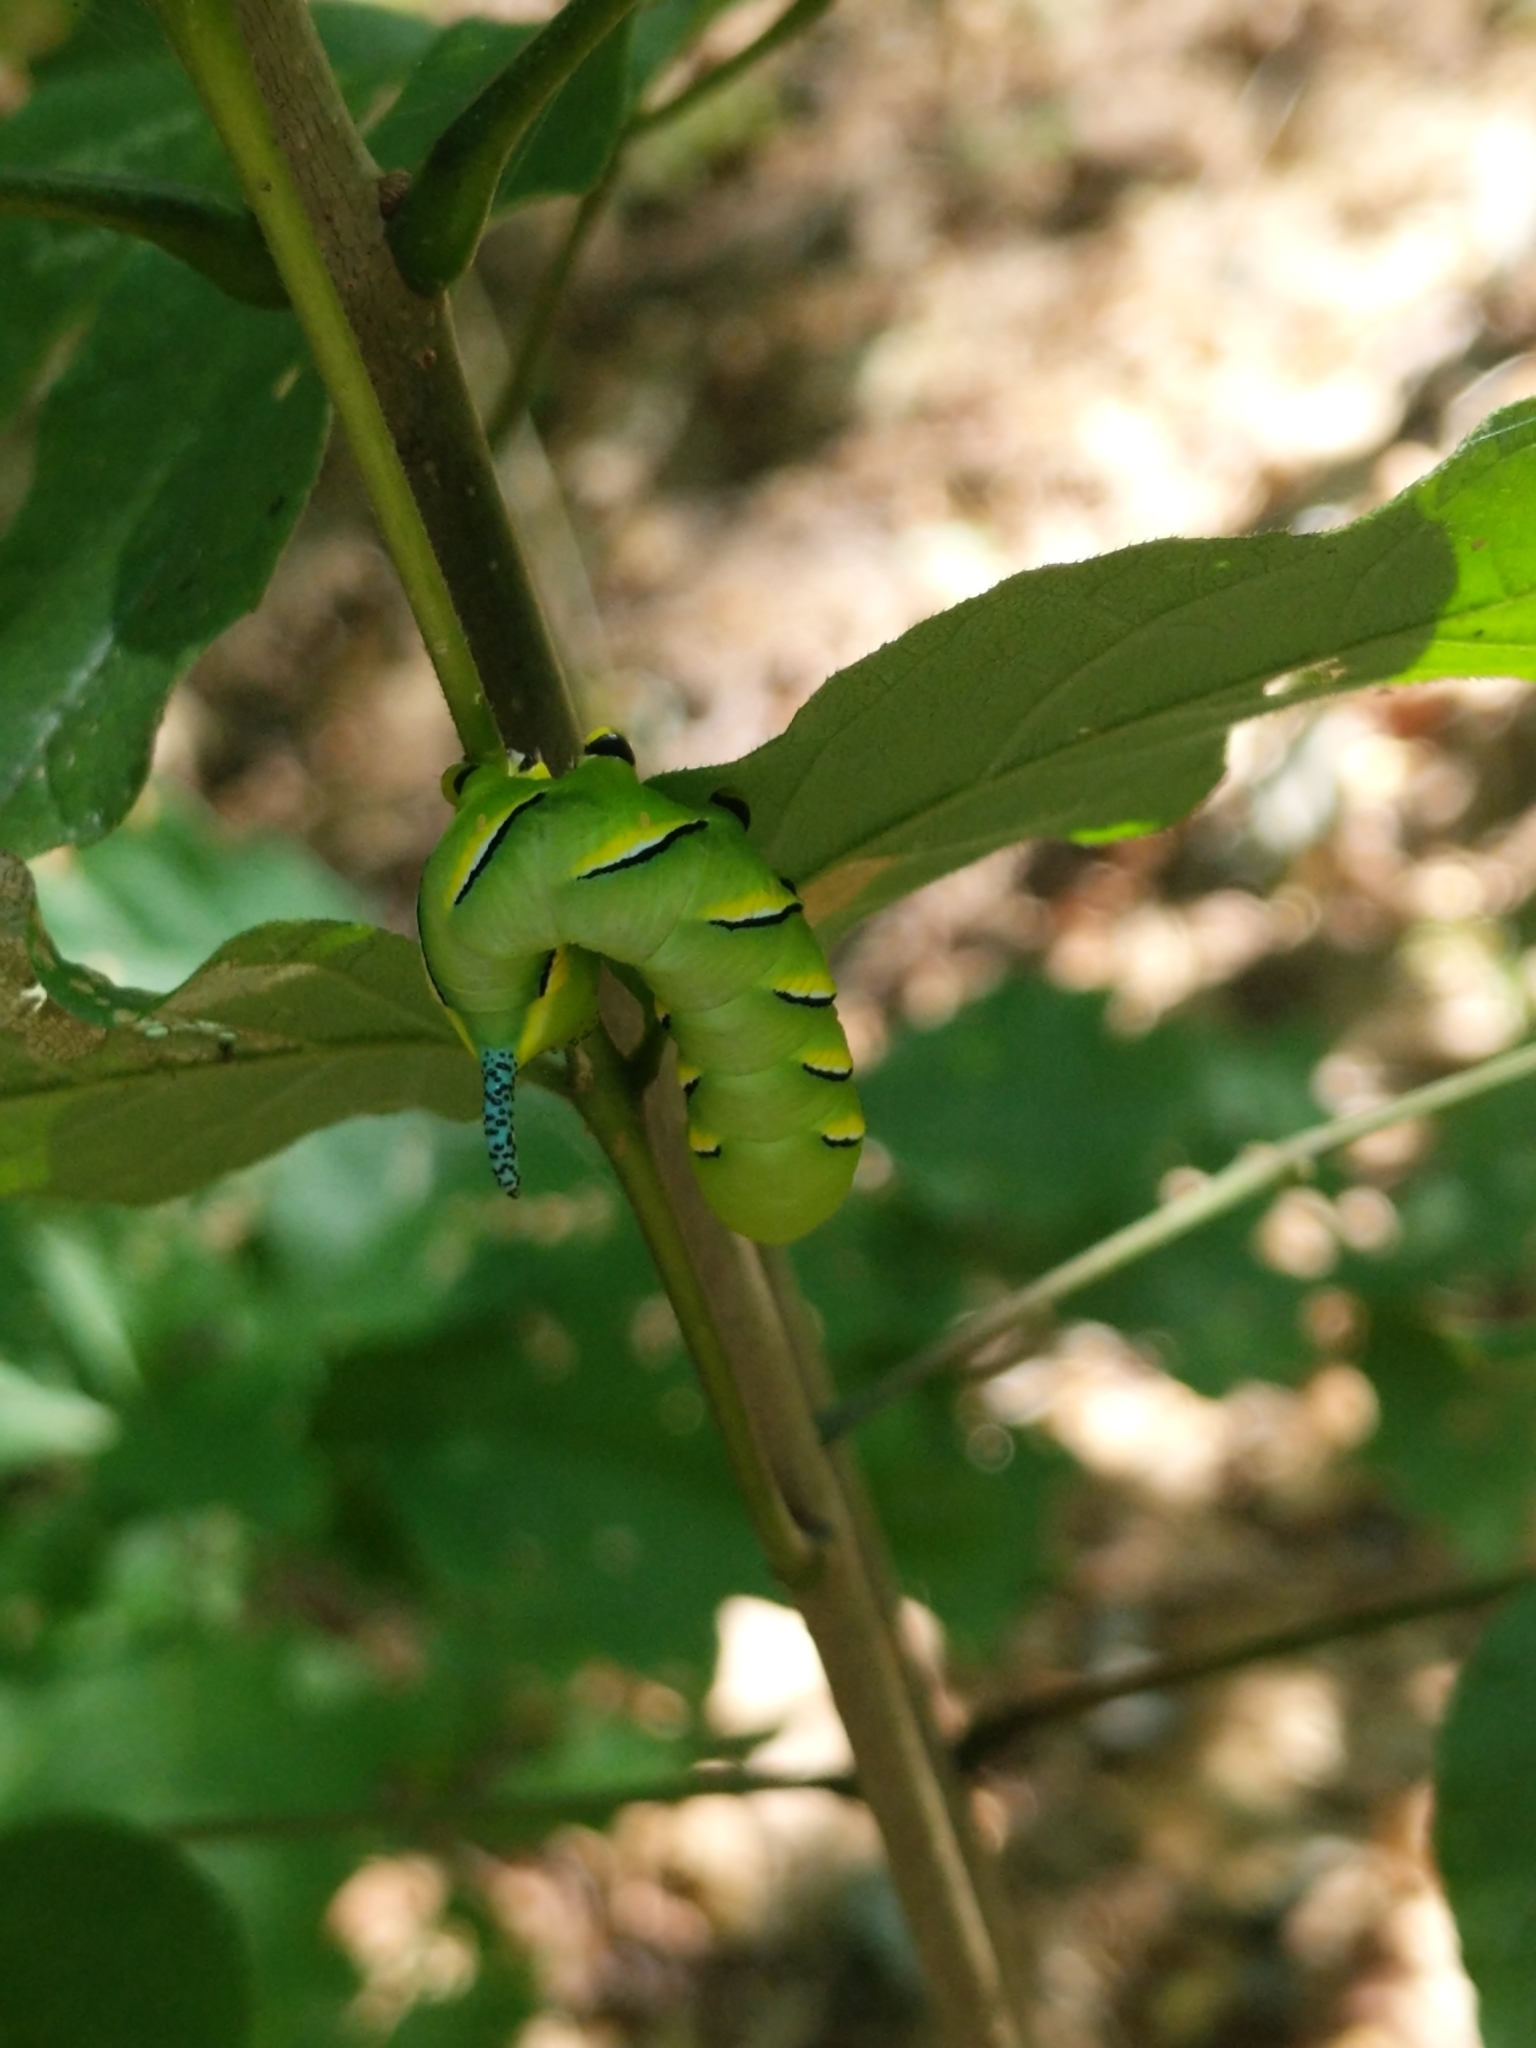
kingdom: Animalia
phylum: Arthropoda
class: Insecta
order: Lepidoptera
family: Sphingidae
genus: Sphinx
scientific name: Sphinx kalmiae
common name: Laurel sphinx
